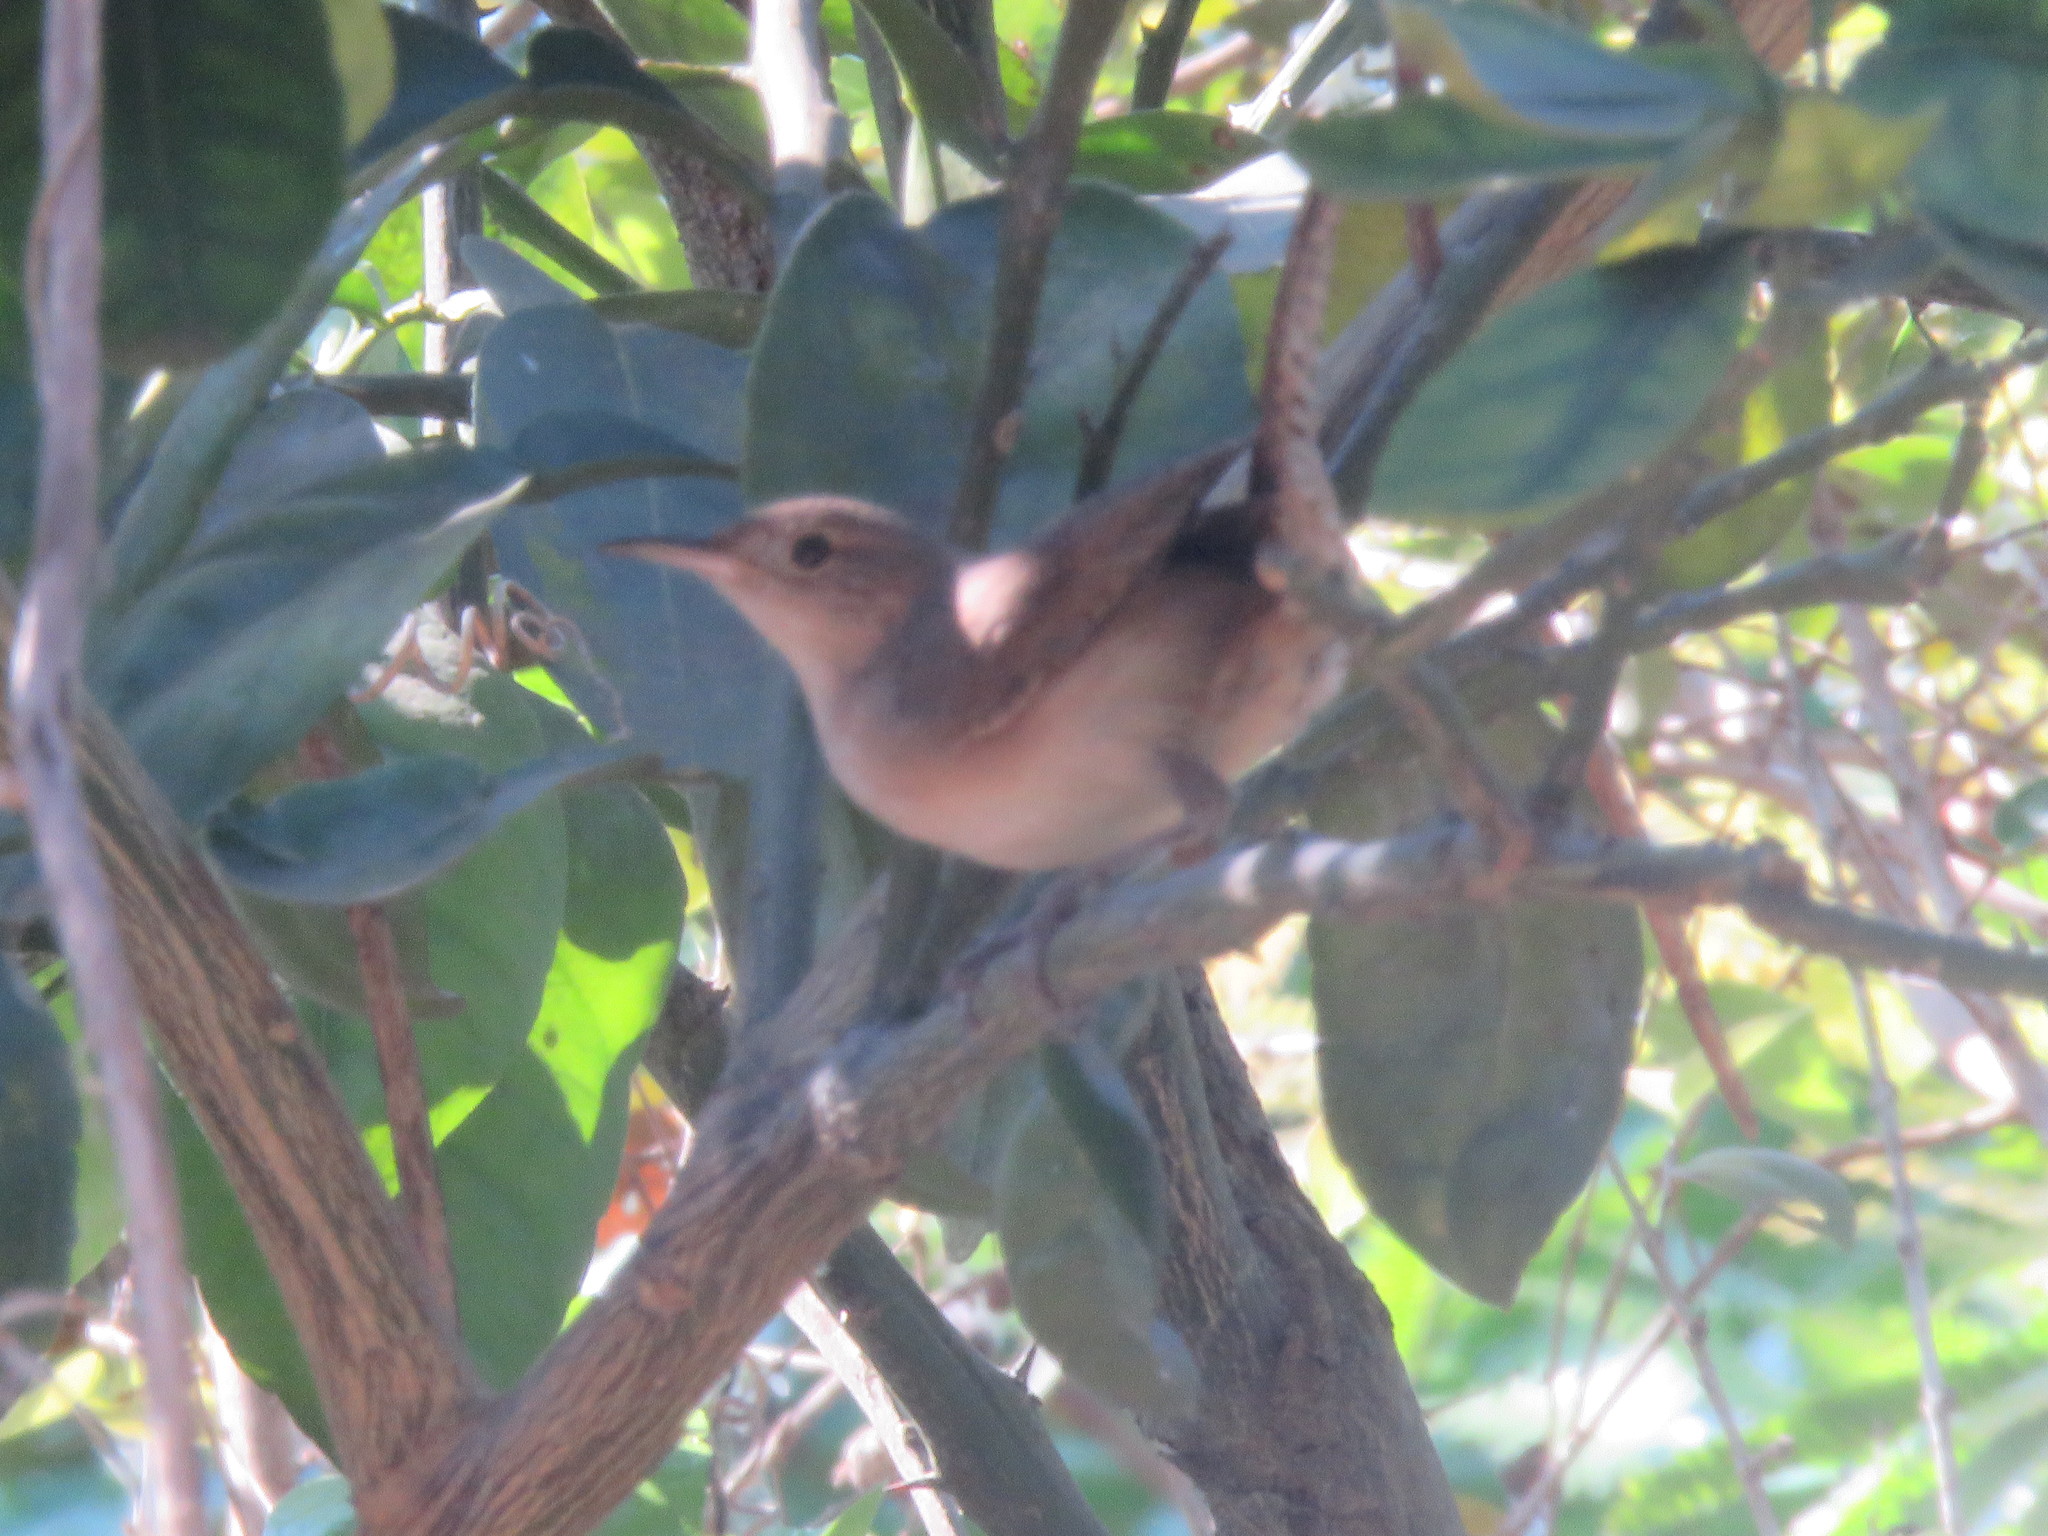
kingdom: Animalia
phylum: Chordata
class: Aves
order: Passeriformes
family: Troglodytidae
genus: Troglodytes
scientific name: Troglodytes aedon
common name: House wren
